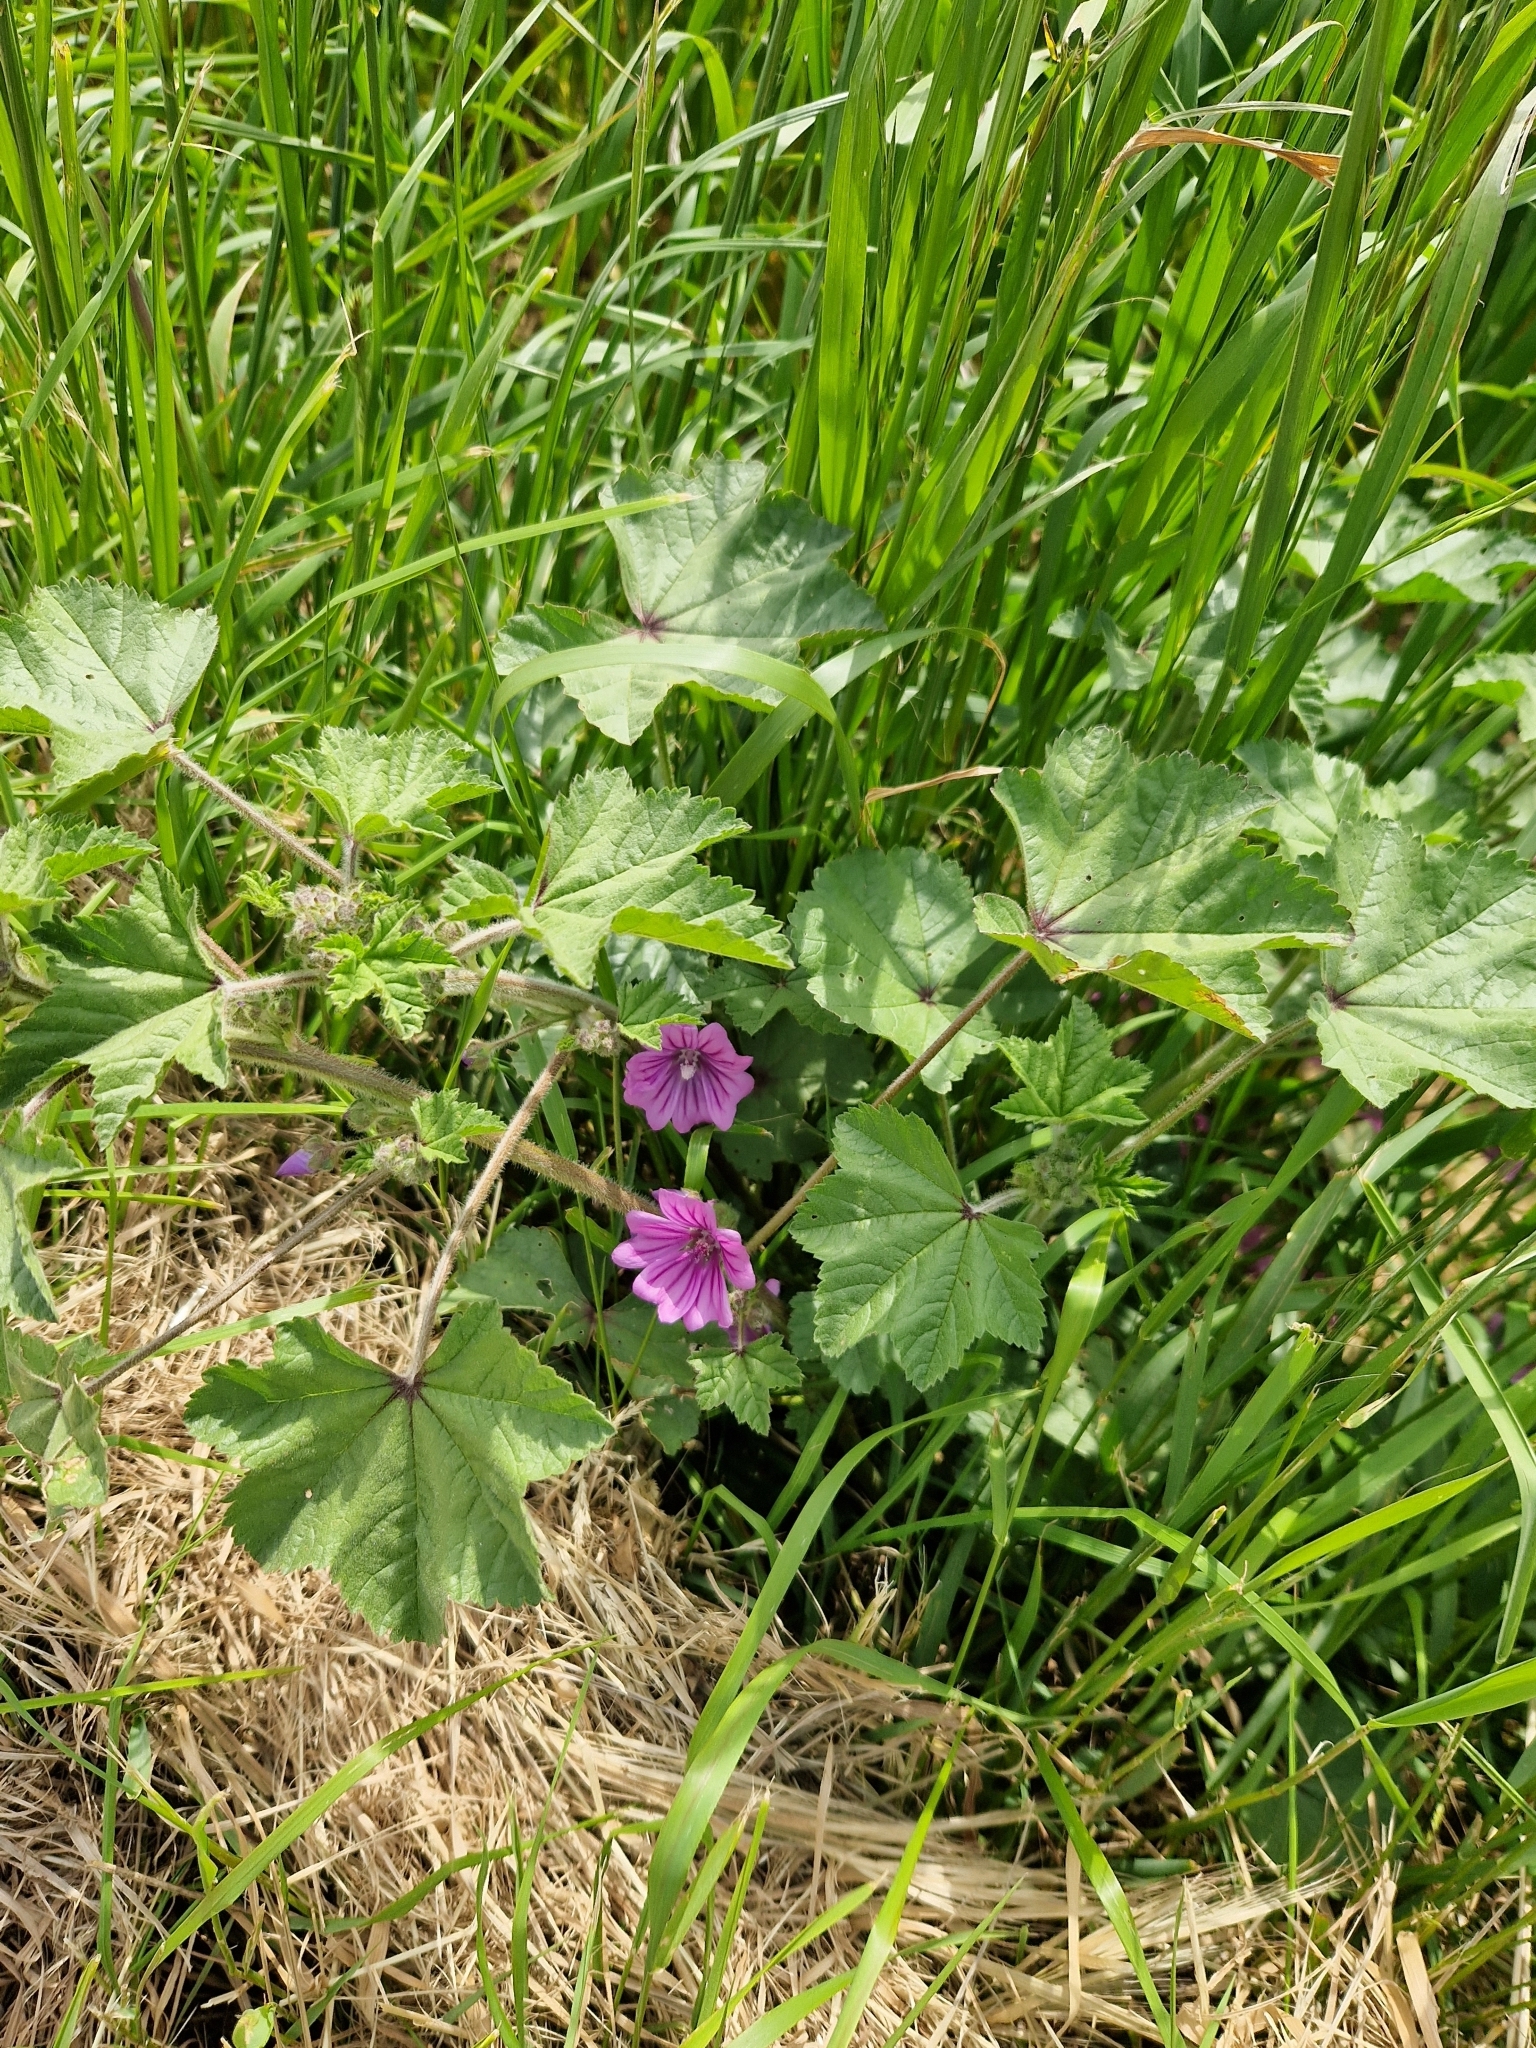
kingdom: Plantae
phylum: Tracheophyta
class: Magnoliopsida
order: Malvales
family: Malvaceae
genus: Malva
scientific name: Malva sylvestris
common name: Common mallow
